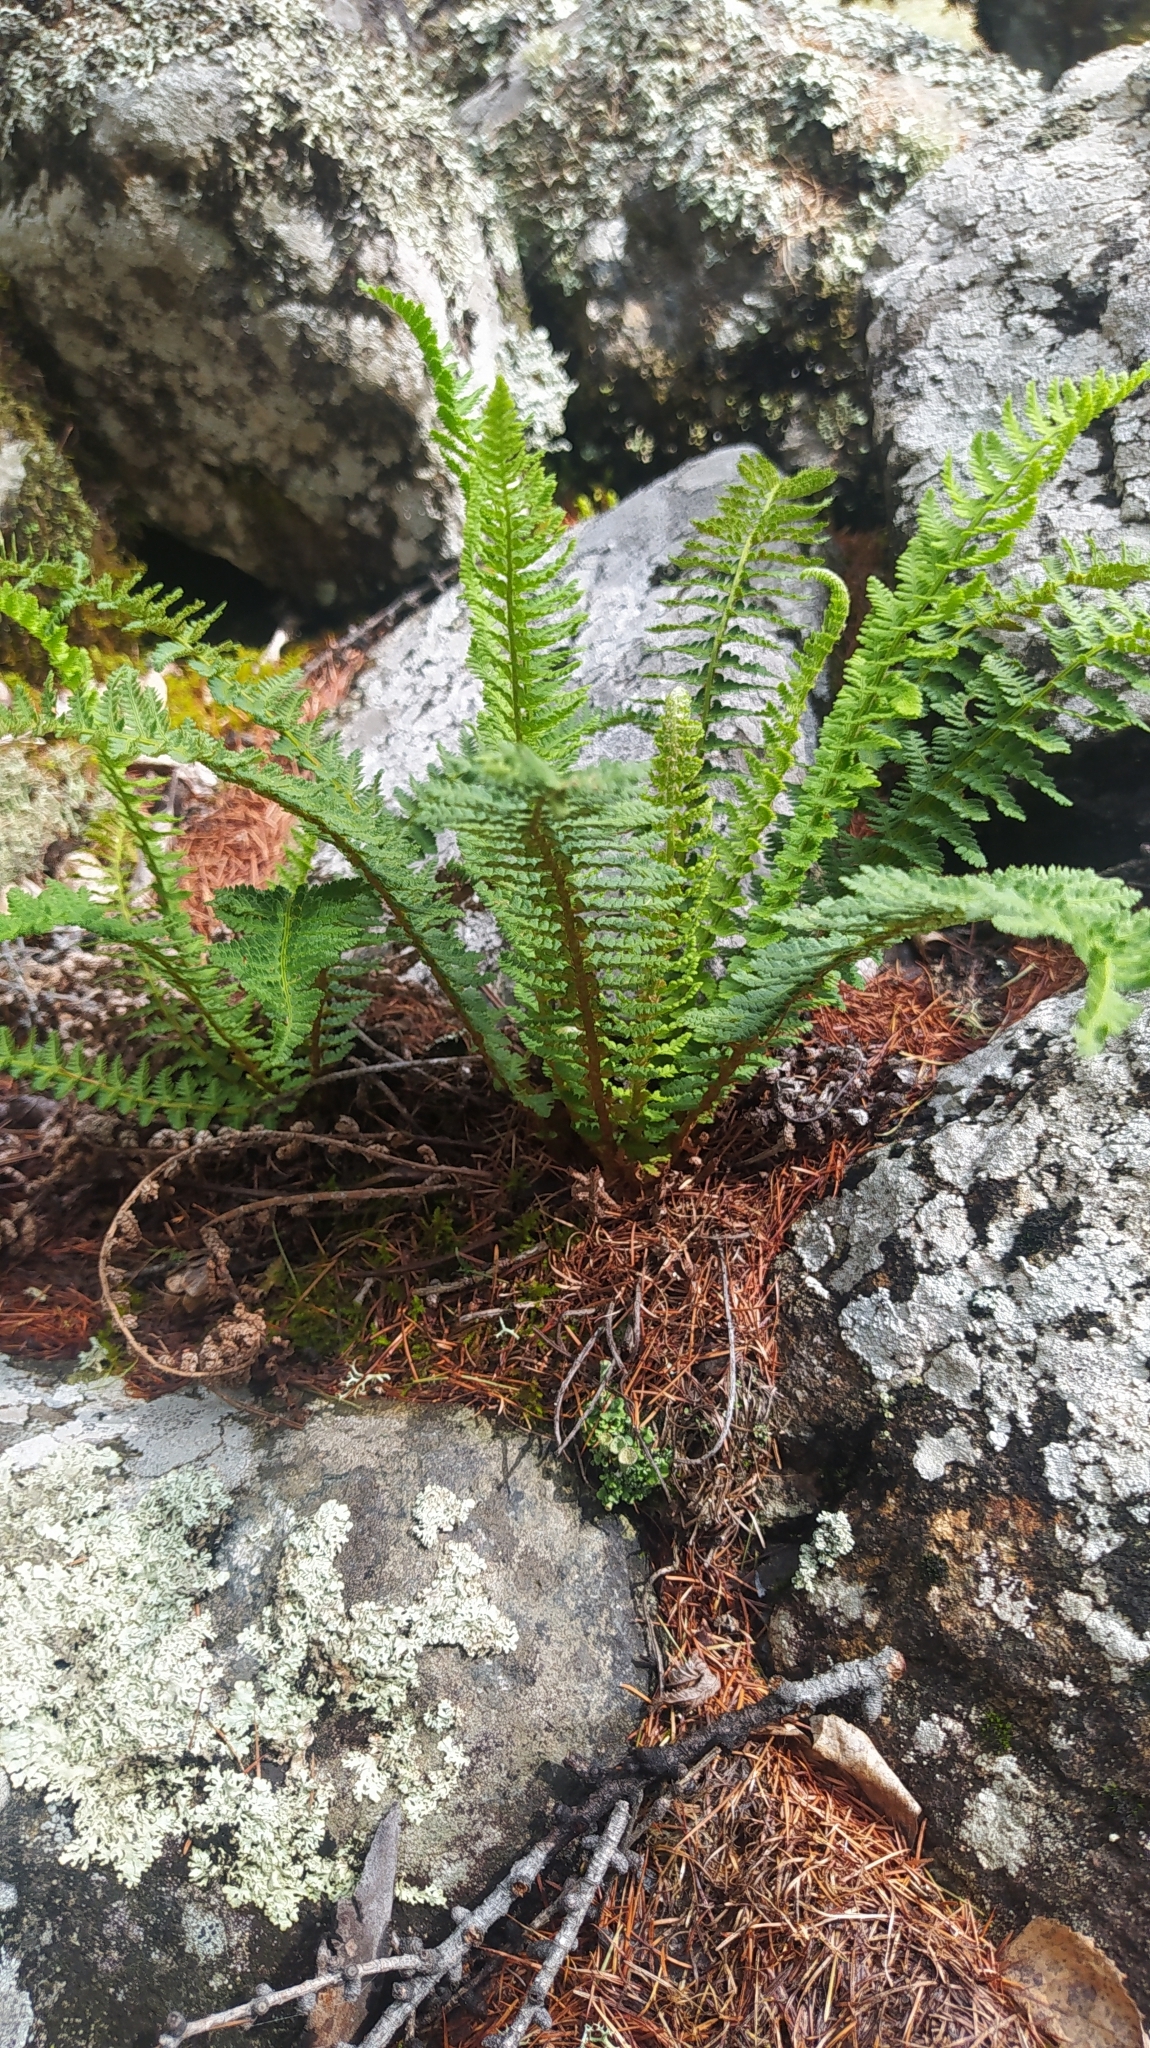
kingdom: Plantae
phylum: Tracheophyta
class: Polypodiopsida
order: Polypodiales
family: Dryopteridaceae
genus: Dryopteris
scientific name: Dryopteris fragrans
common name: Fragrant wood fern
